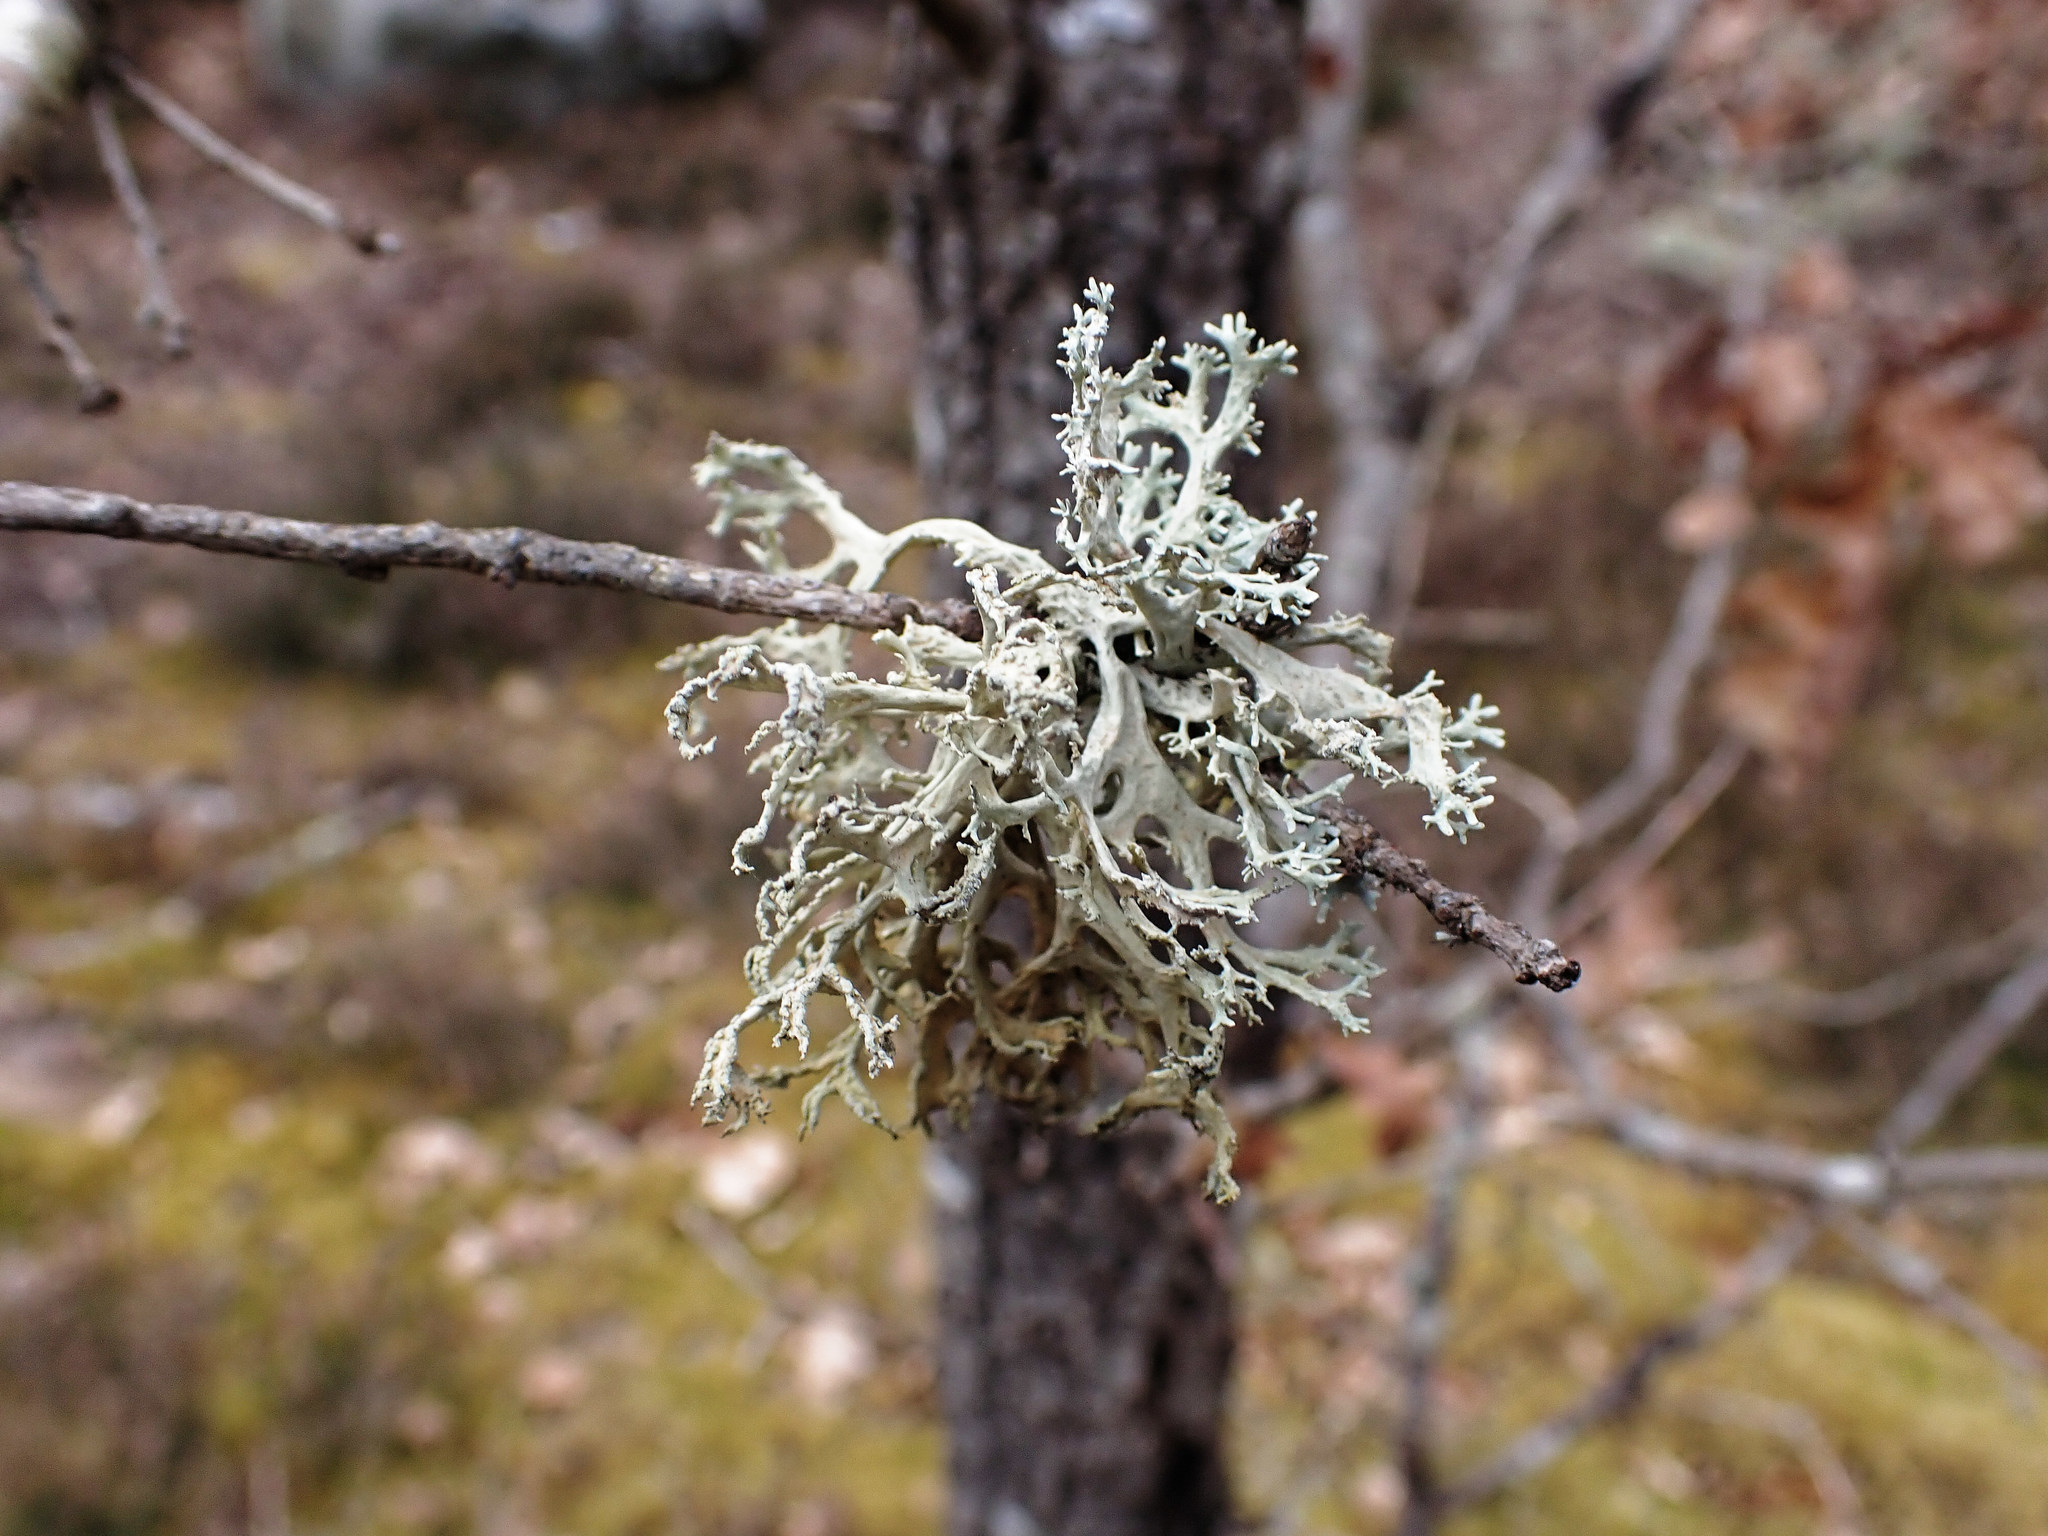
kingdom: Fungi
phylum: Ascomycota
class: Lecanoromycetes
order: Lecanorales
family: Parmeliaceae
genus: Evernia
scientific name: Evernia prunastri
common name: Oak moss
